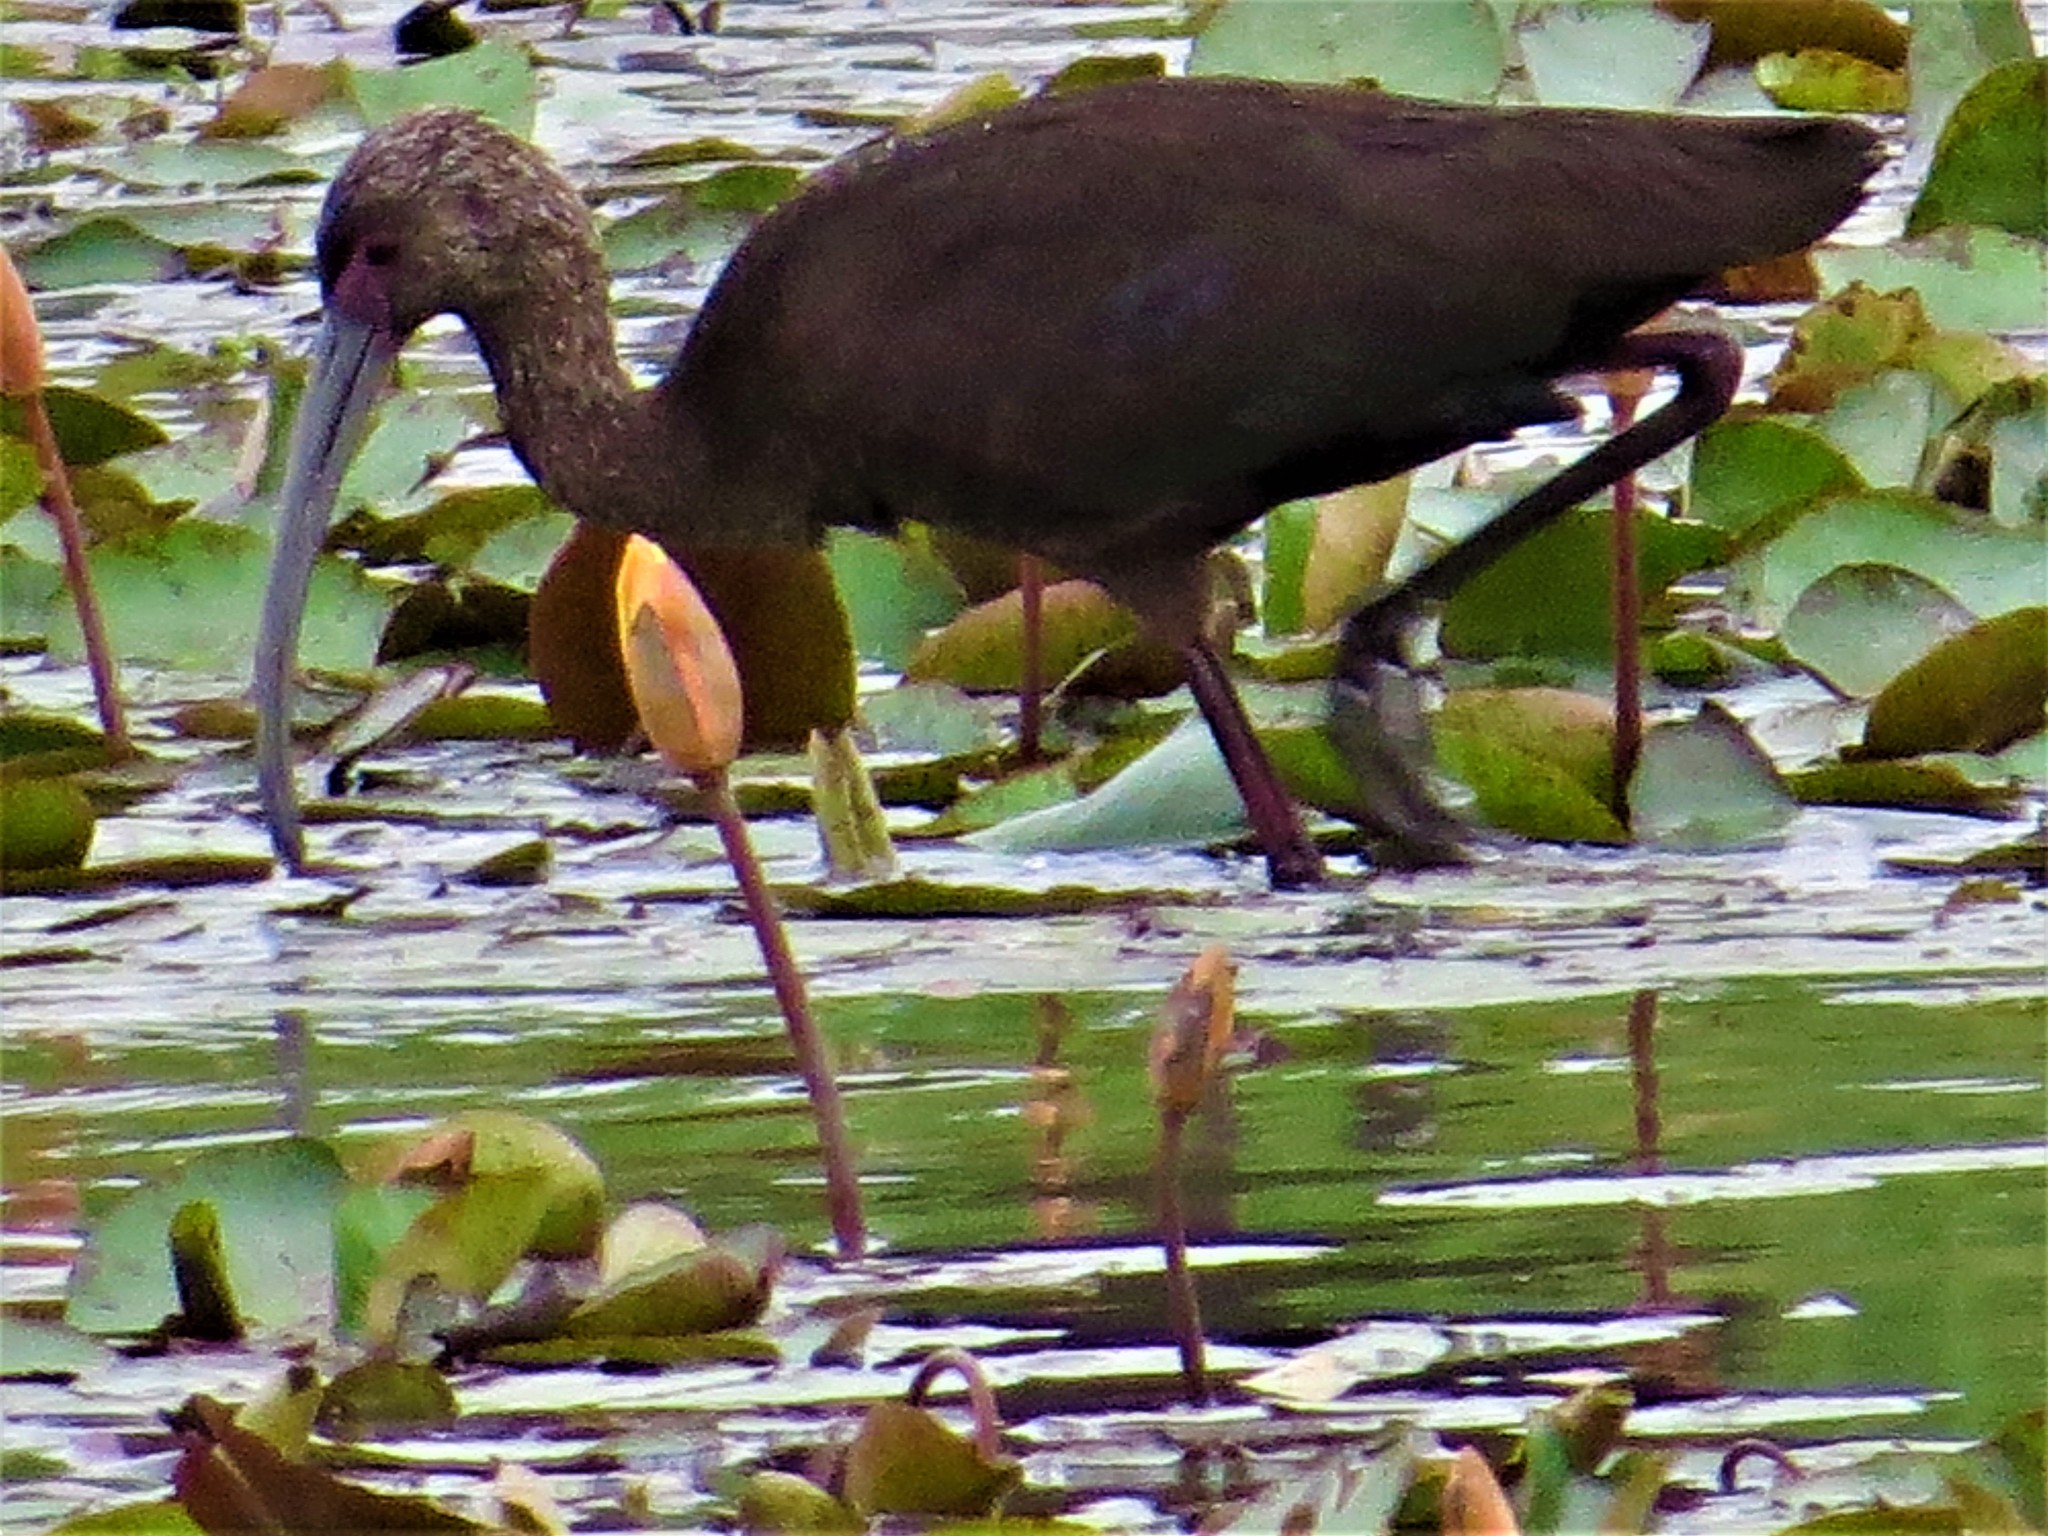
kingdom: Animalia
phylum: Chordata
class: Aves
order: Pelecaniformes
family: Threskiornithidae
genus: Plegadis
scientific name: Plegadis chihi
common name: White-faced ibis
